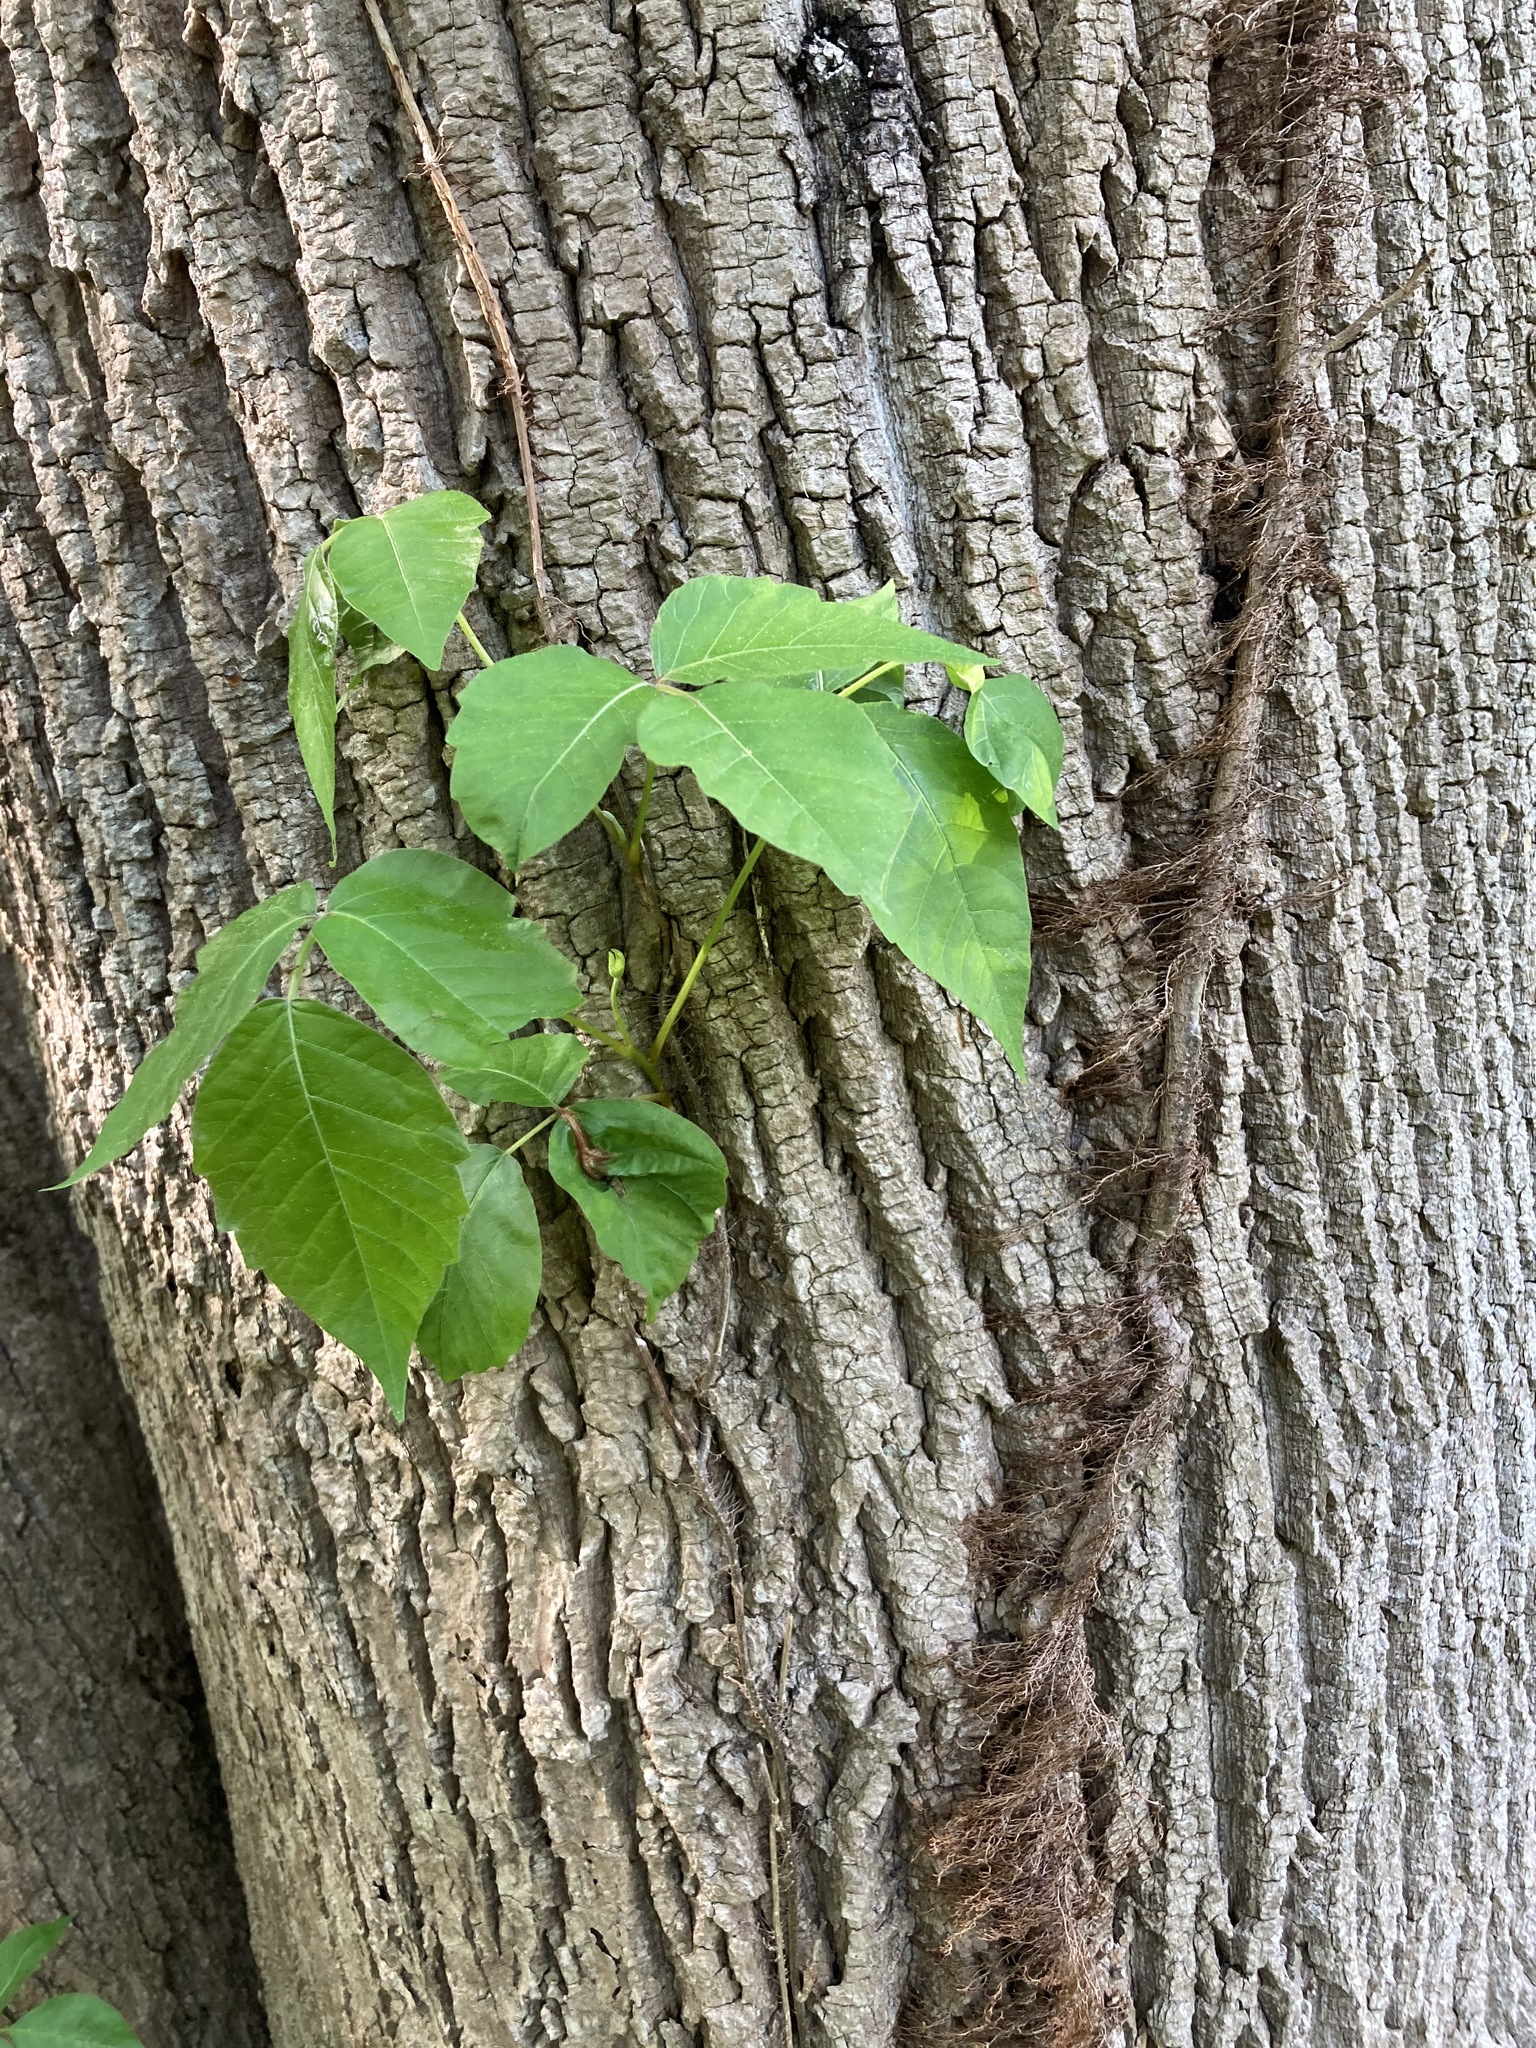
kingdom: Plantae
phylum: Tracheophyta
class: Magnoliopsida
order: Sapindales
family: Anacardiaceae
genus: Toxicodendron
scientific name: Toxicodendron radicans
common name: Poison ivy
